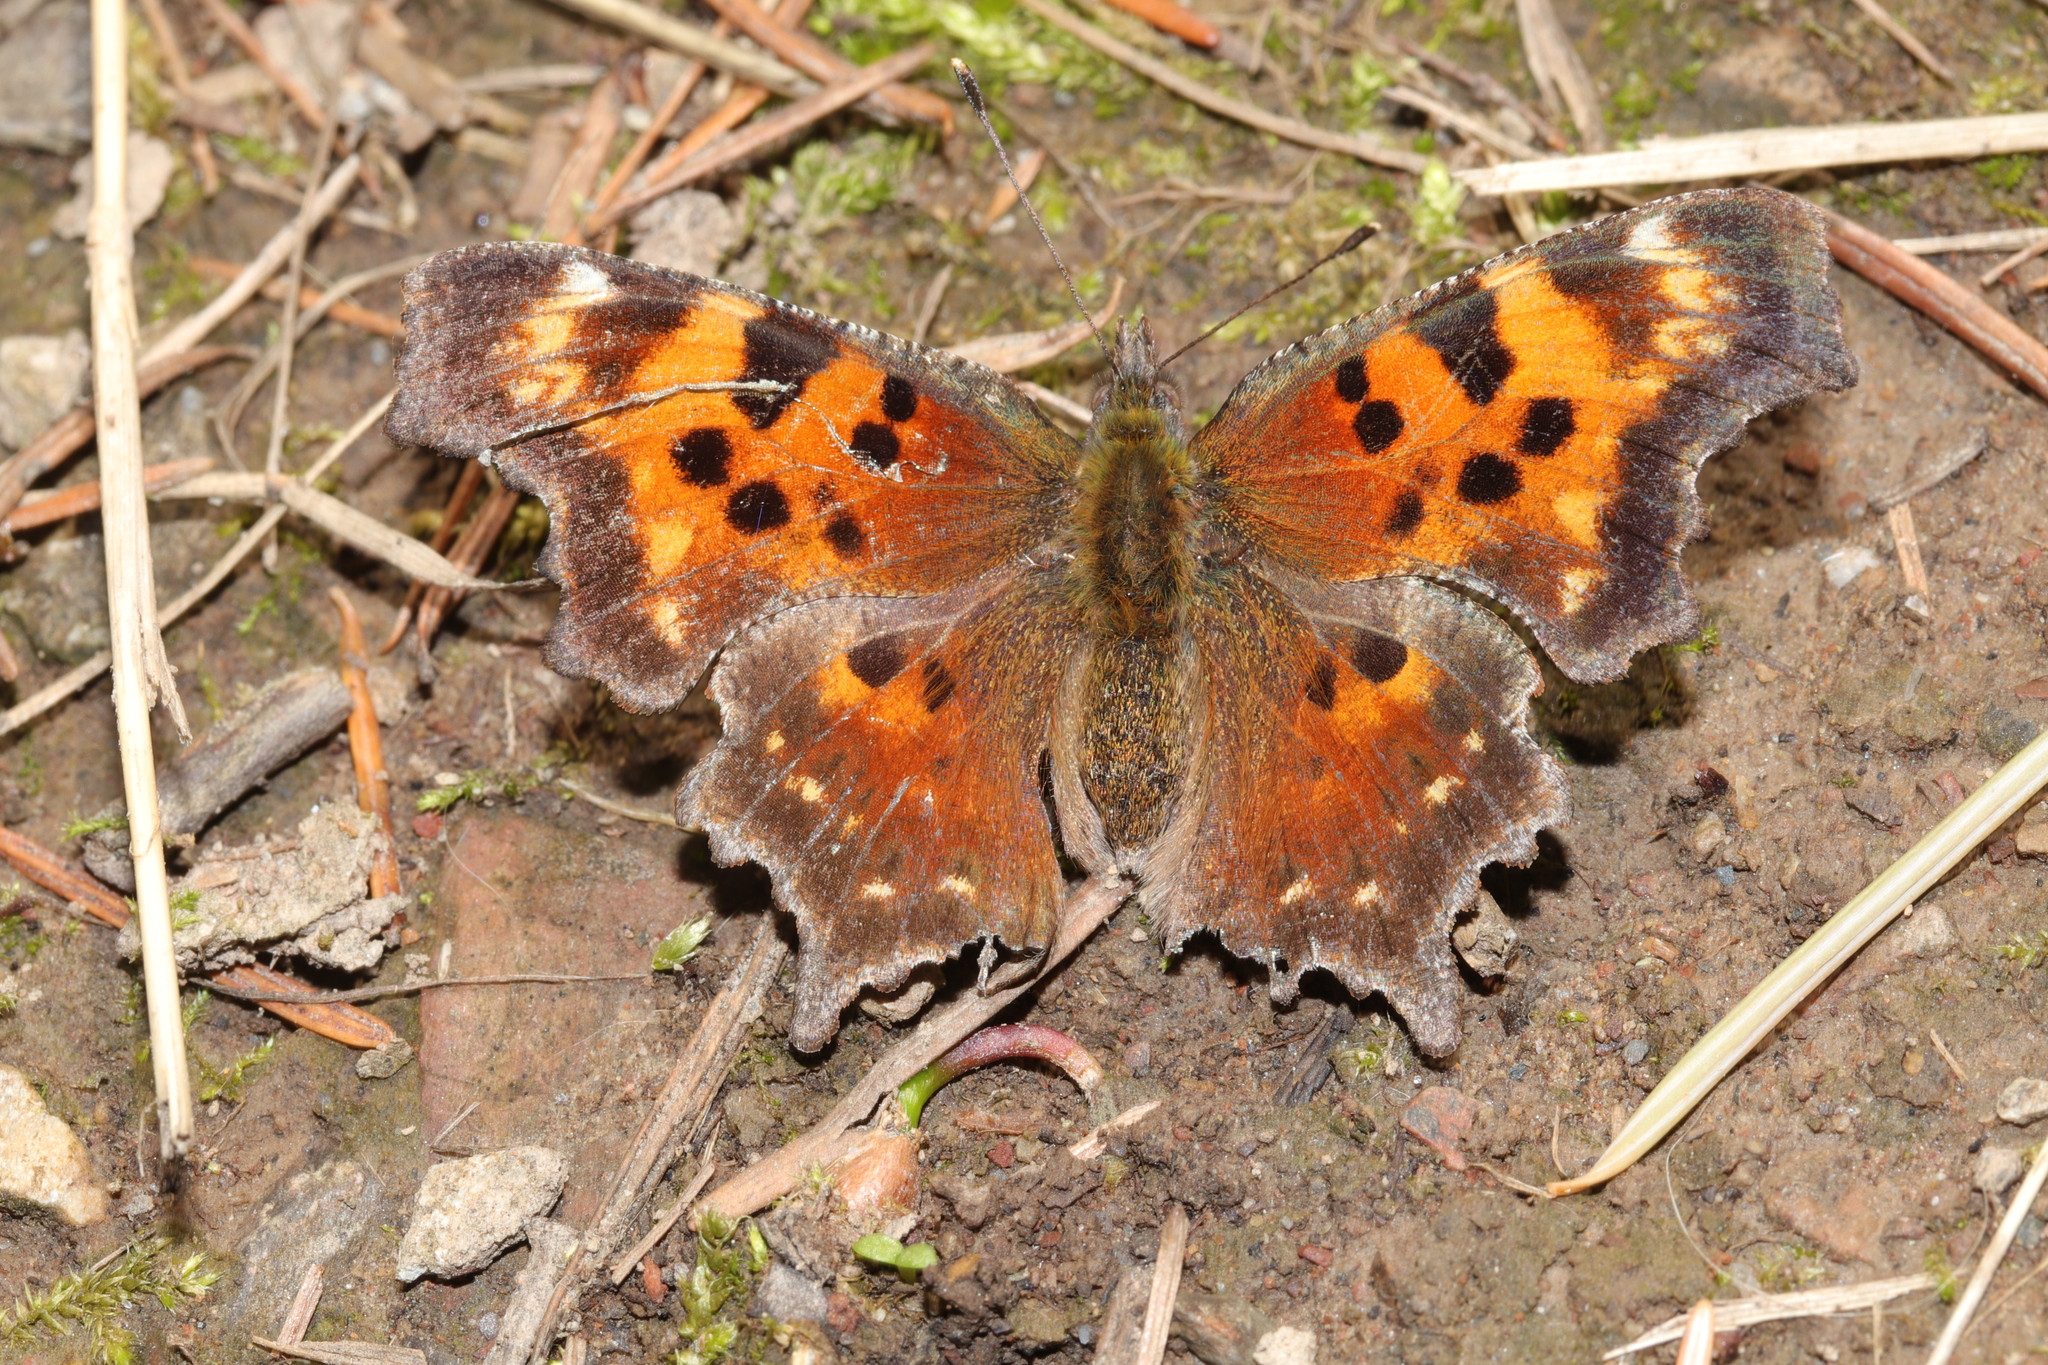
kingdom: Animalia
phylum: Arthropoda
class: Insecta
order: Lepidoptera
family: Nymphalidae
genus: Polygonia
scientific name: Polygonia faunus
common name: Green comma
